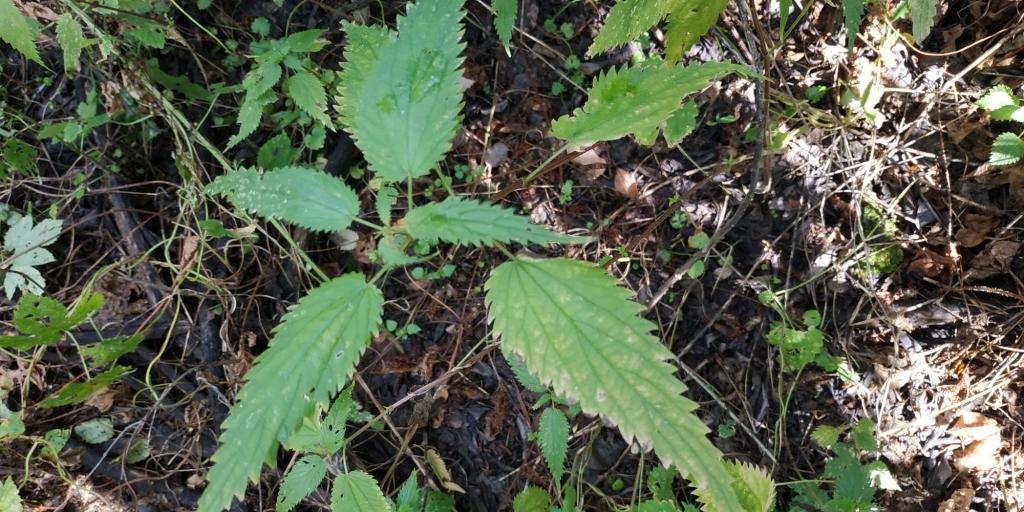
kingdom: Plantae
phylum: Tracheophyta
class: Magnoliopsida
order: Rosales
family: Urticaceae
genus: Urtica
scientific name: Urtica dioica
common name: Common nettle
